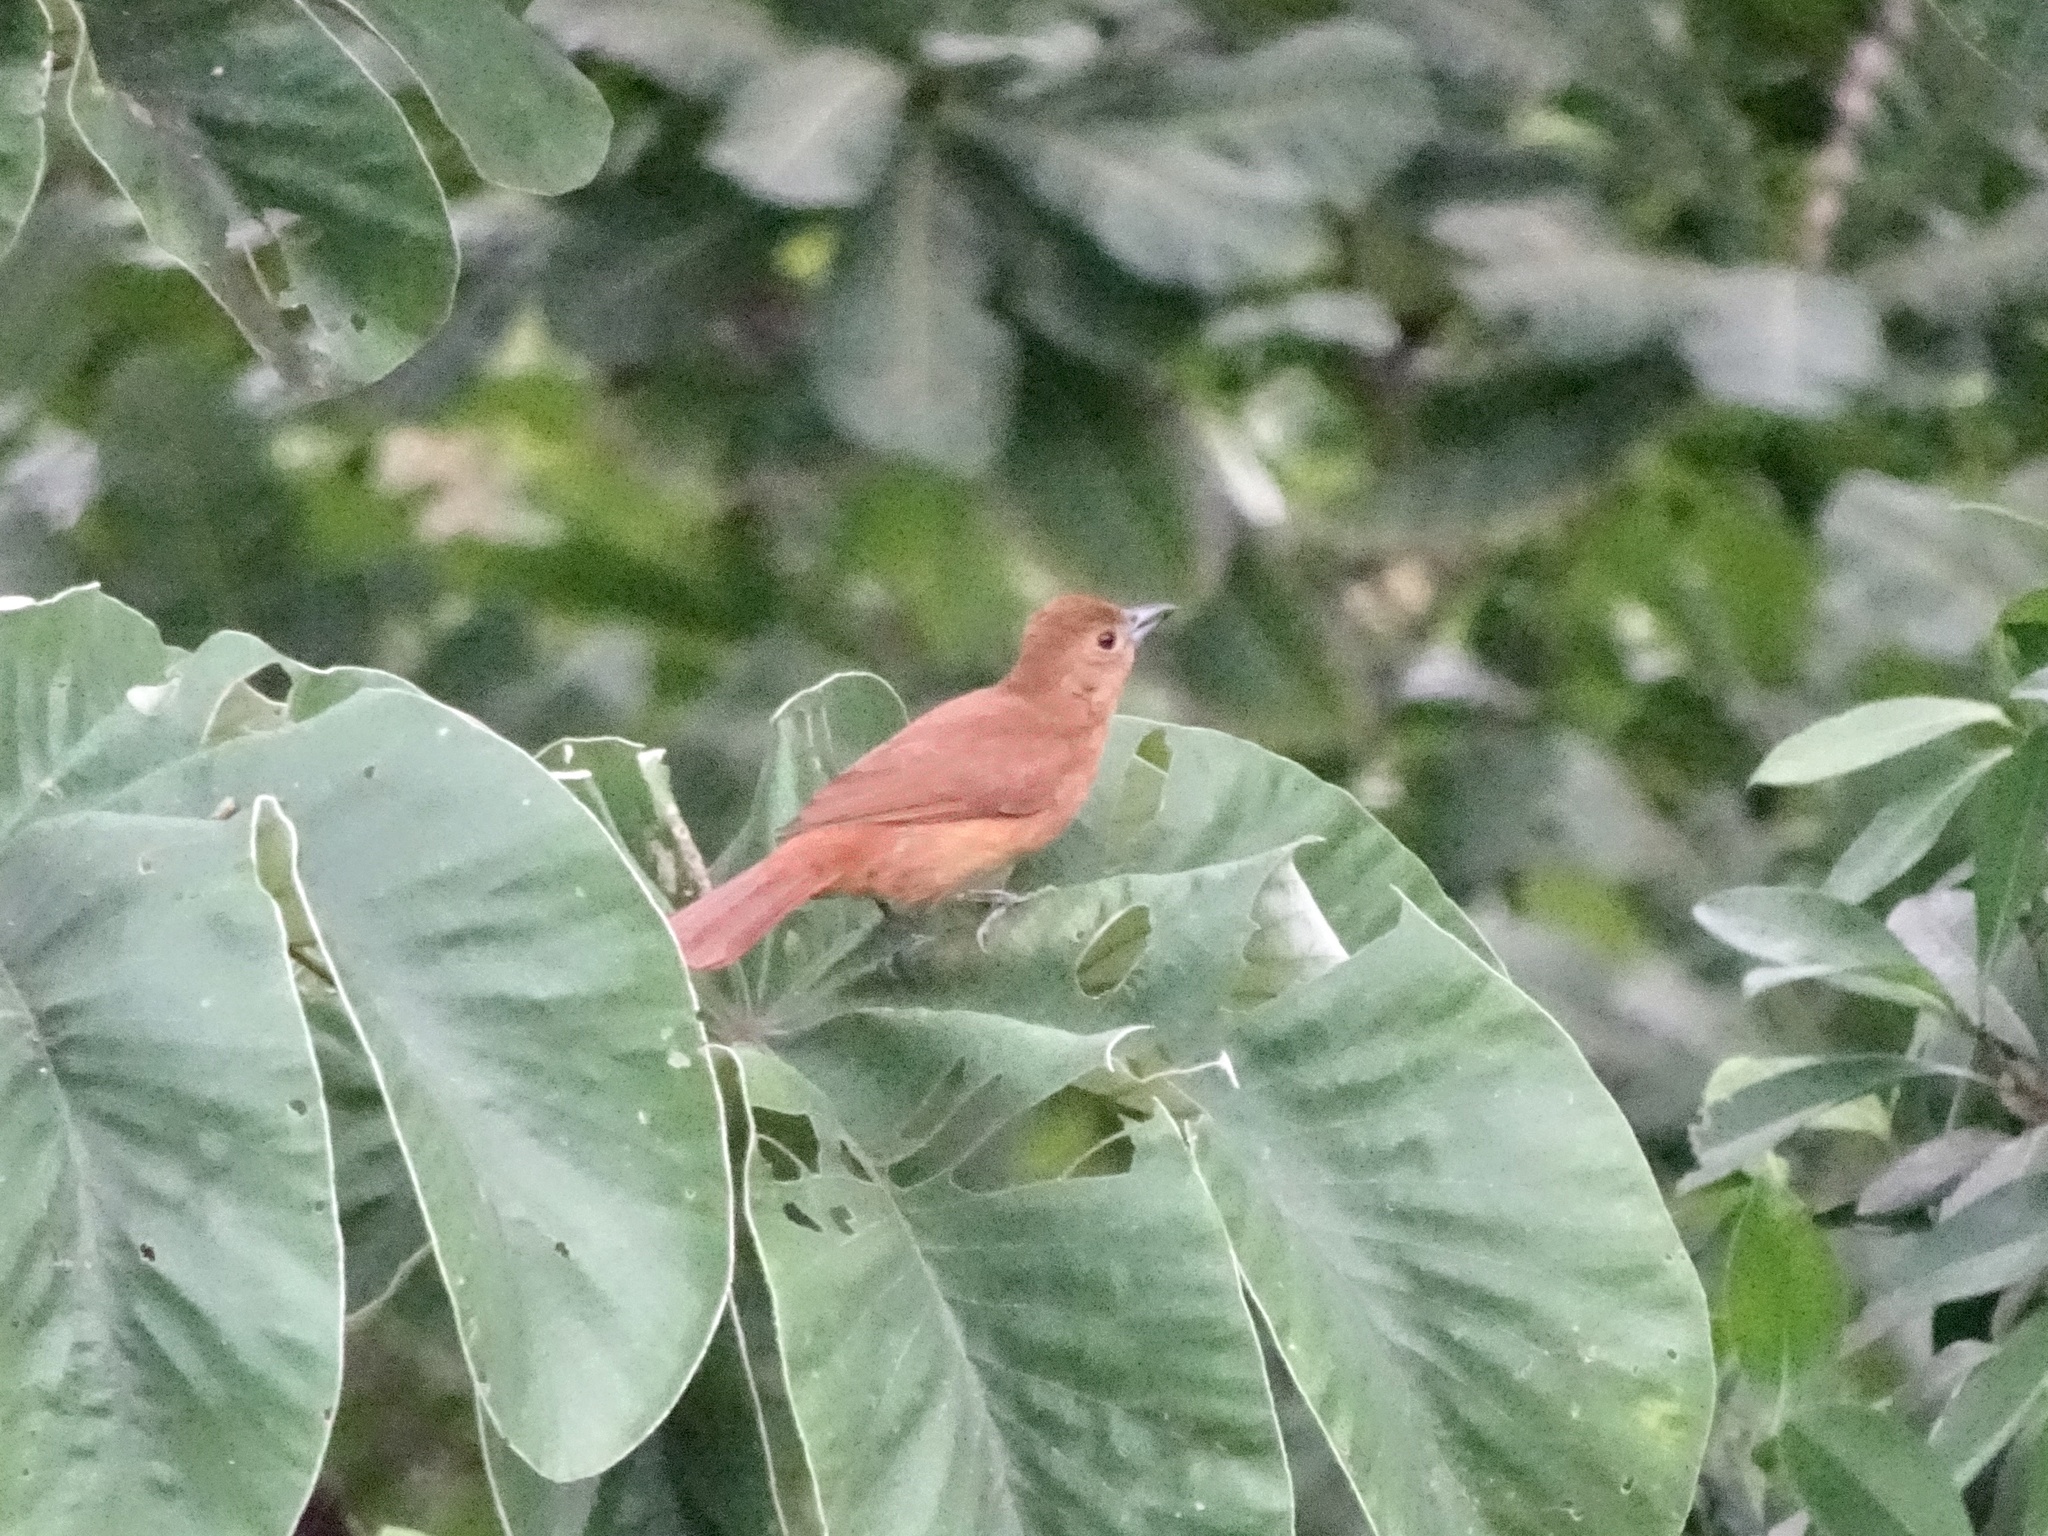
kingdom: Animalia
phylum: Chordata
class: Aves
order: Passeriformes
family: Thraupidae
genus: Tachyphonus
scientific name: Tachyphonus rufus
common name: White-lined tanager
